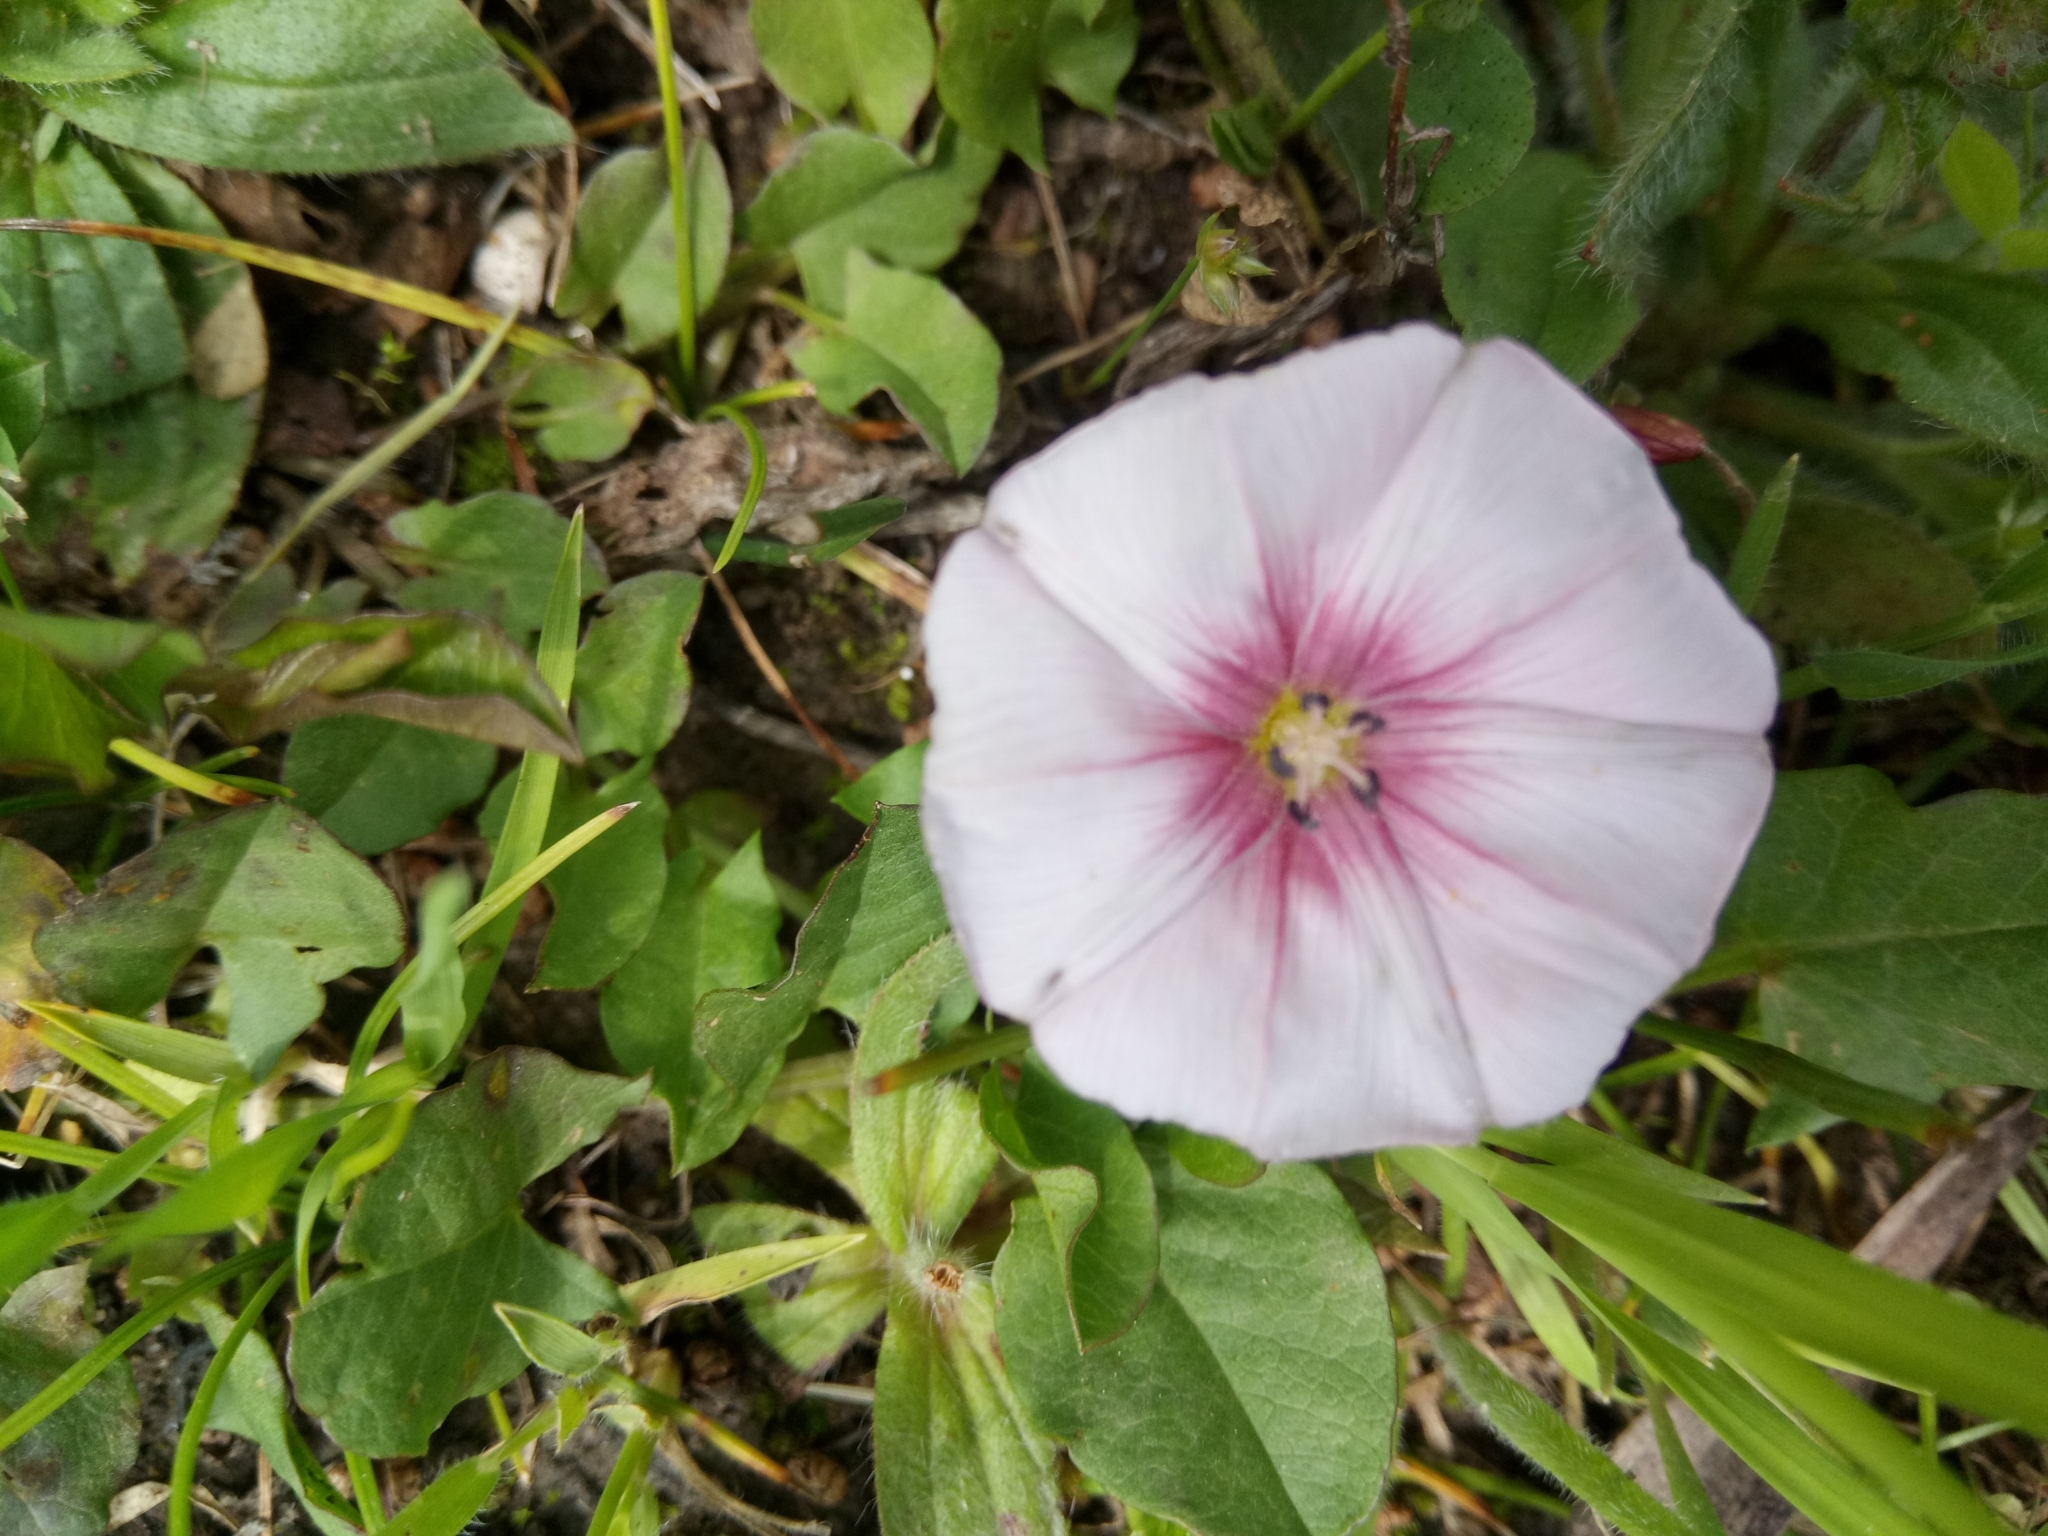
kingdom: Plantae
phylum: Tracheophyta
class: Magnoliopsida
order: Solanales
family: Convolvulaceae
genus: Convolvulus
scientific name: Convolvulus durandoi
